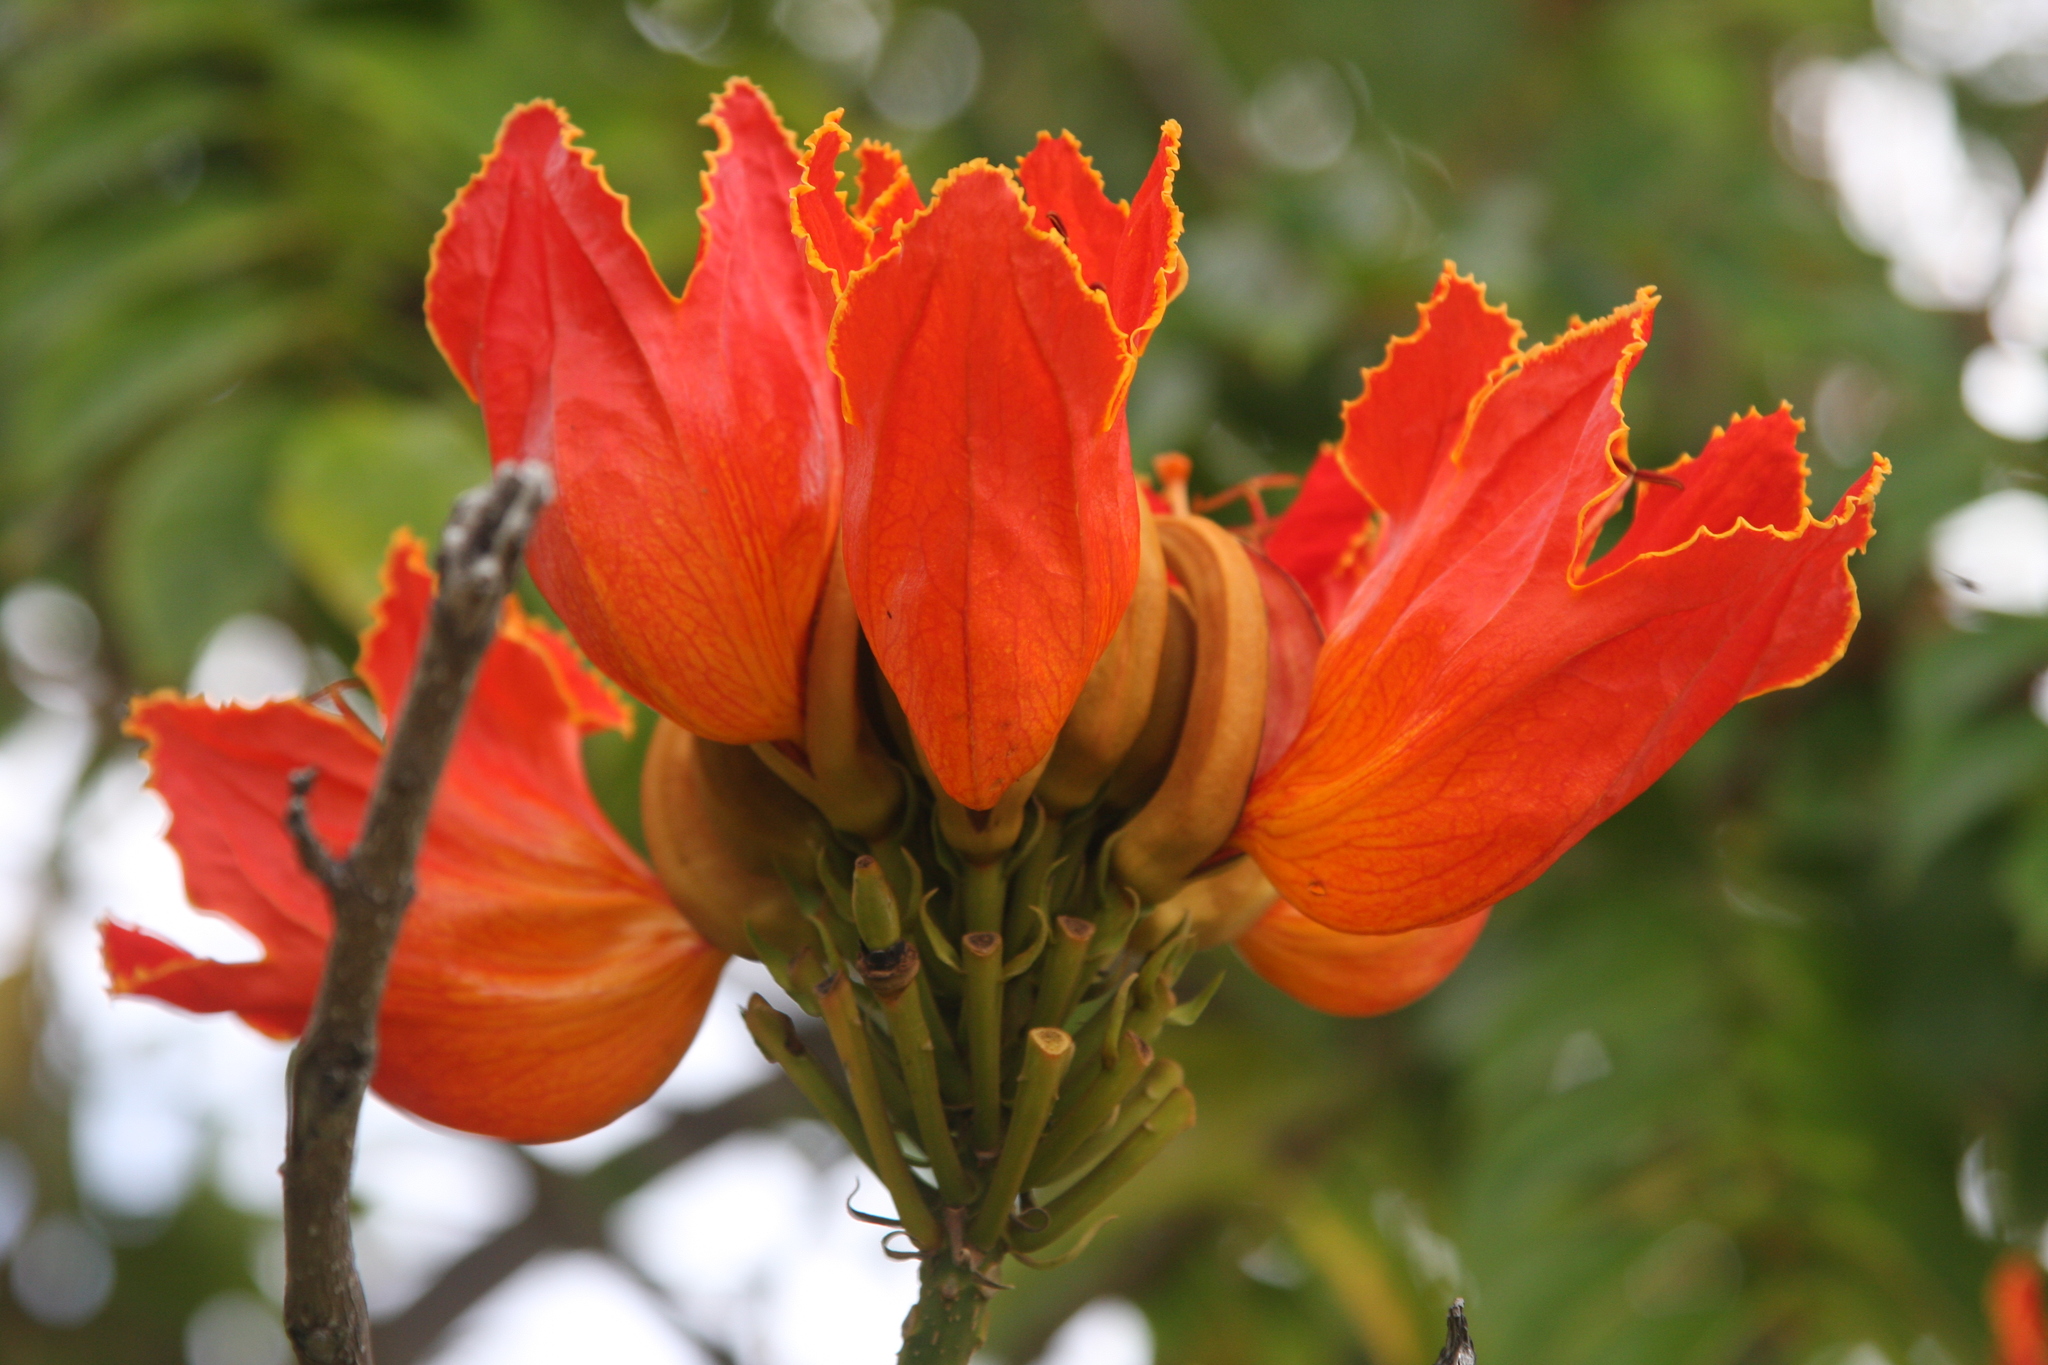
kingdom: Plantae
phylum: Tracheophyta
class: Magnoliopsida
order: Lamiales
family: Bignoniaceae
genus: Spathodea
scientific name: Spathodea campanulata
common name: African tuliptree
